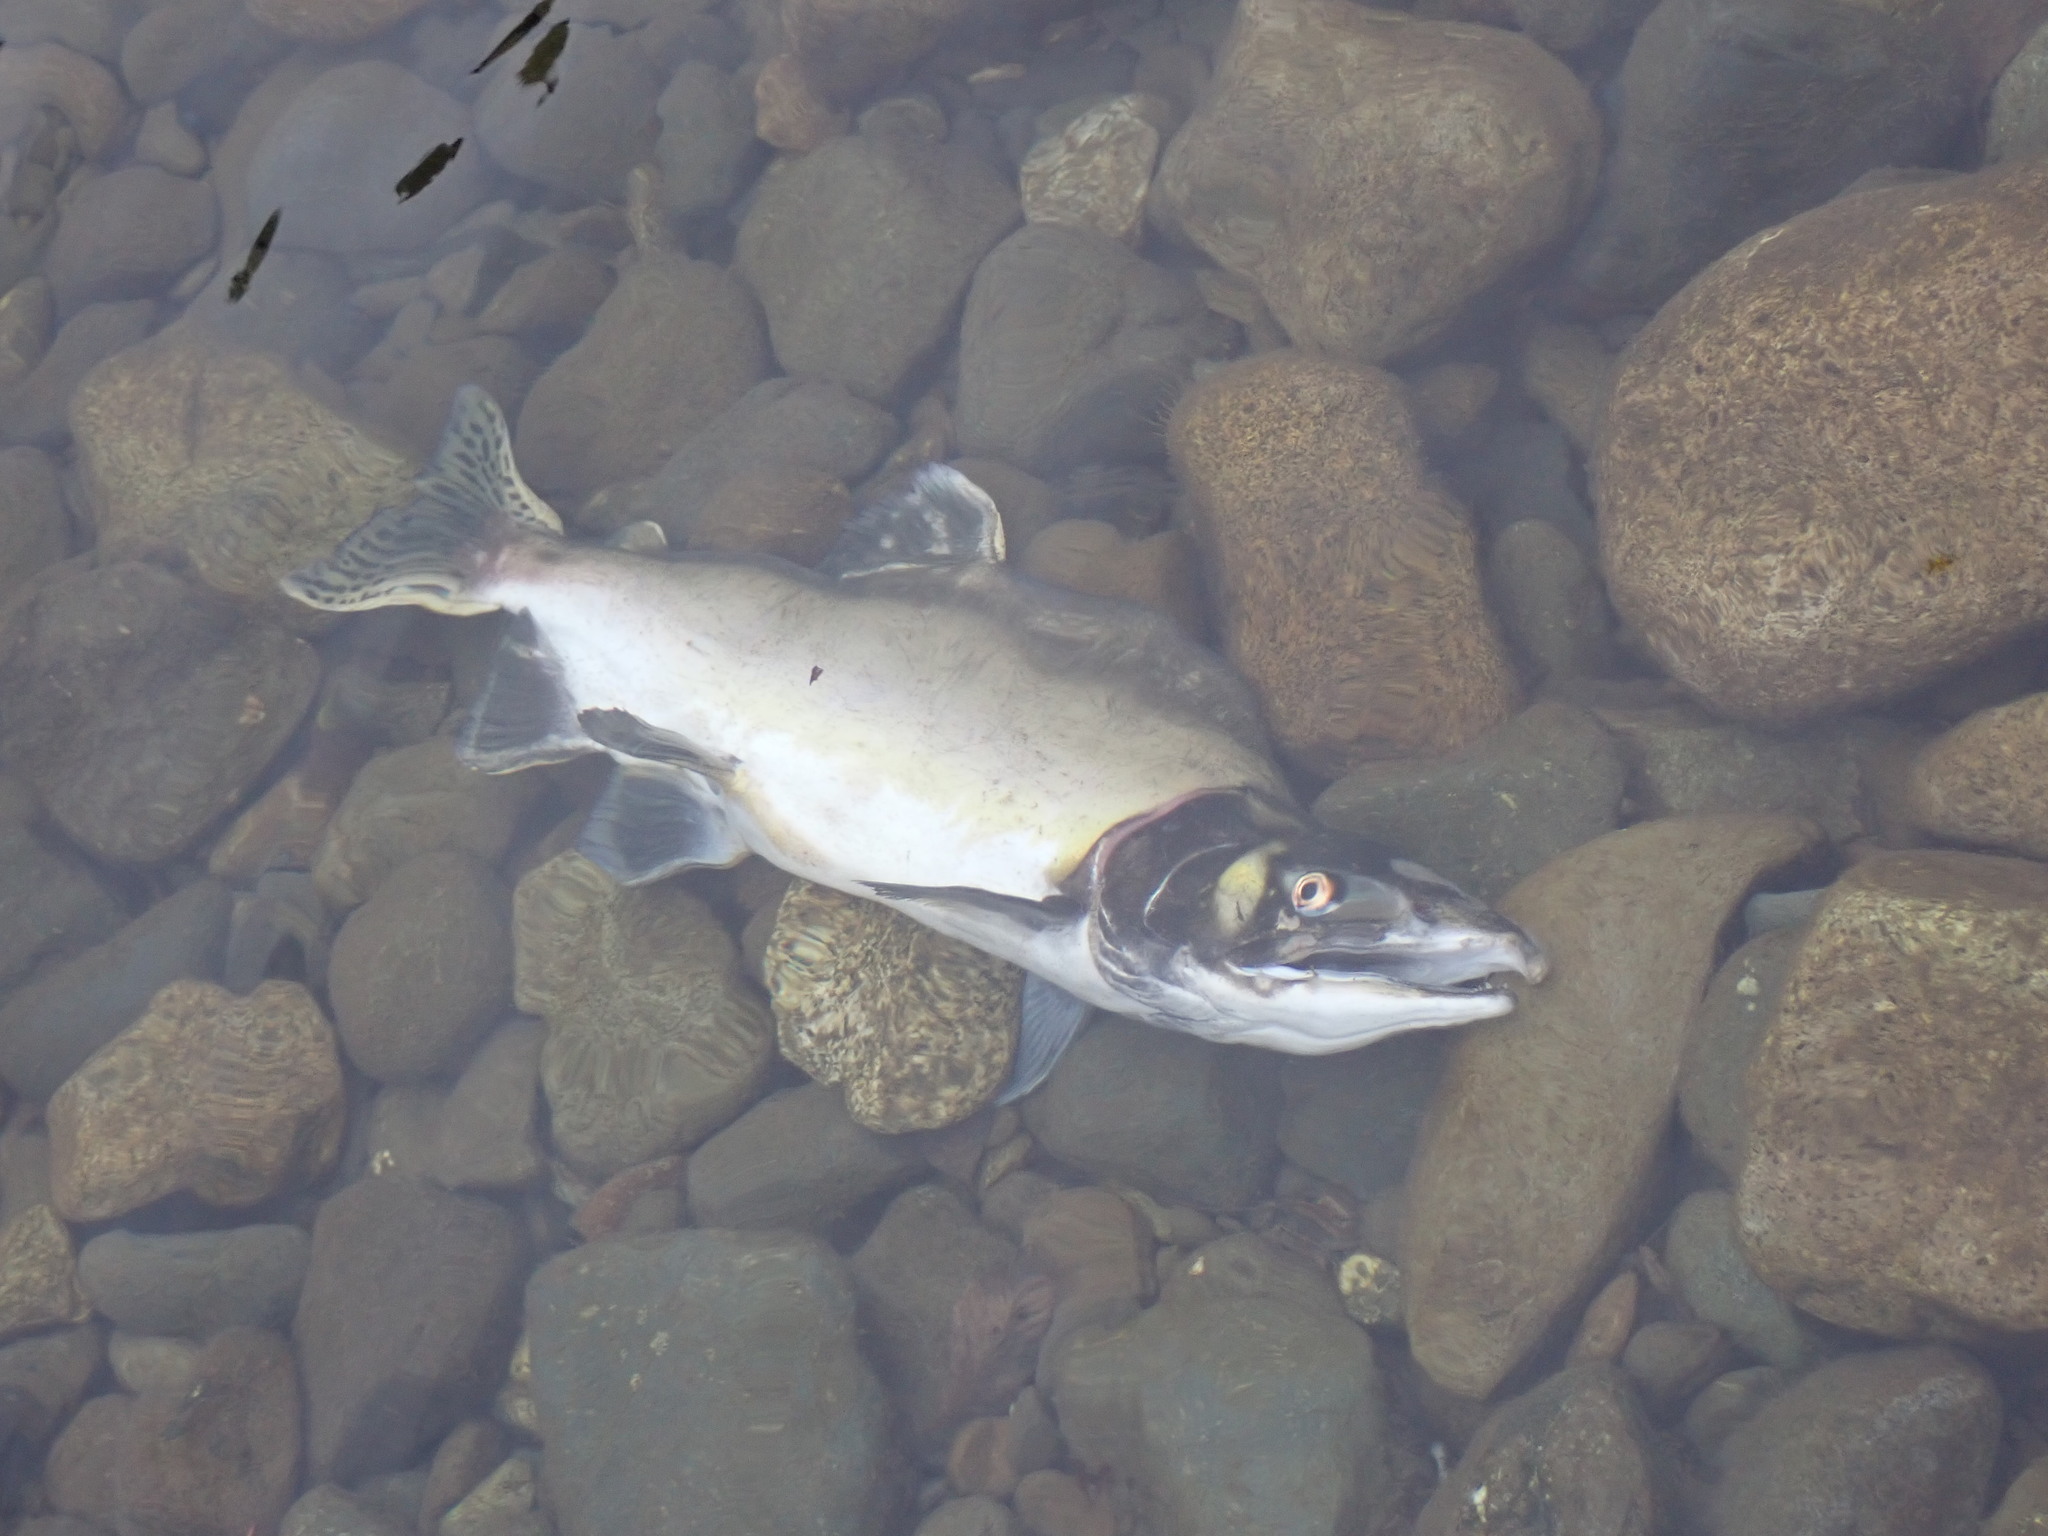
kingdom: Animalia
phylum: Chordata
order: Salmoniformes
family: Salmonidae
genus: Oncorhynchus
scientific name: Oncorhynchus gorbuscha
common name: Humpback salmon
